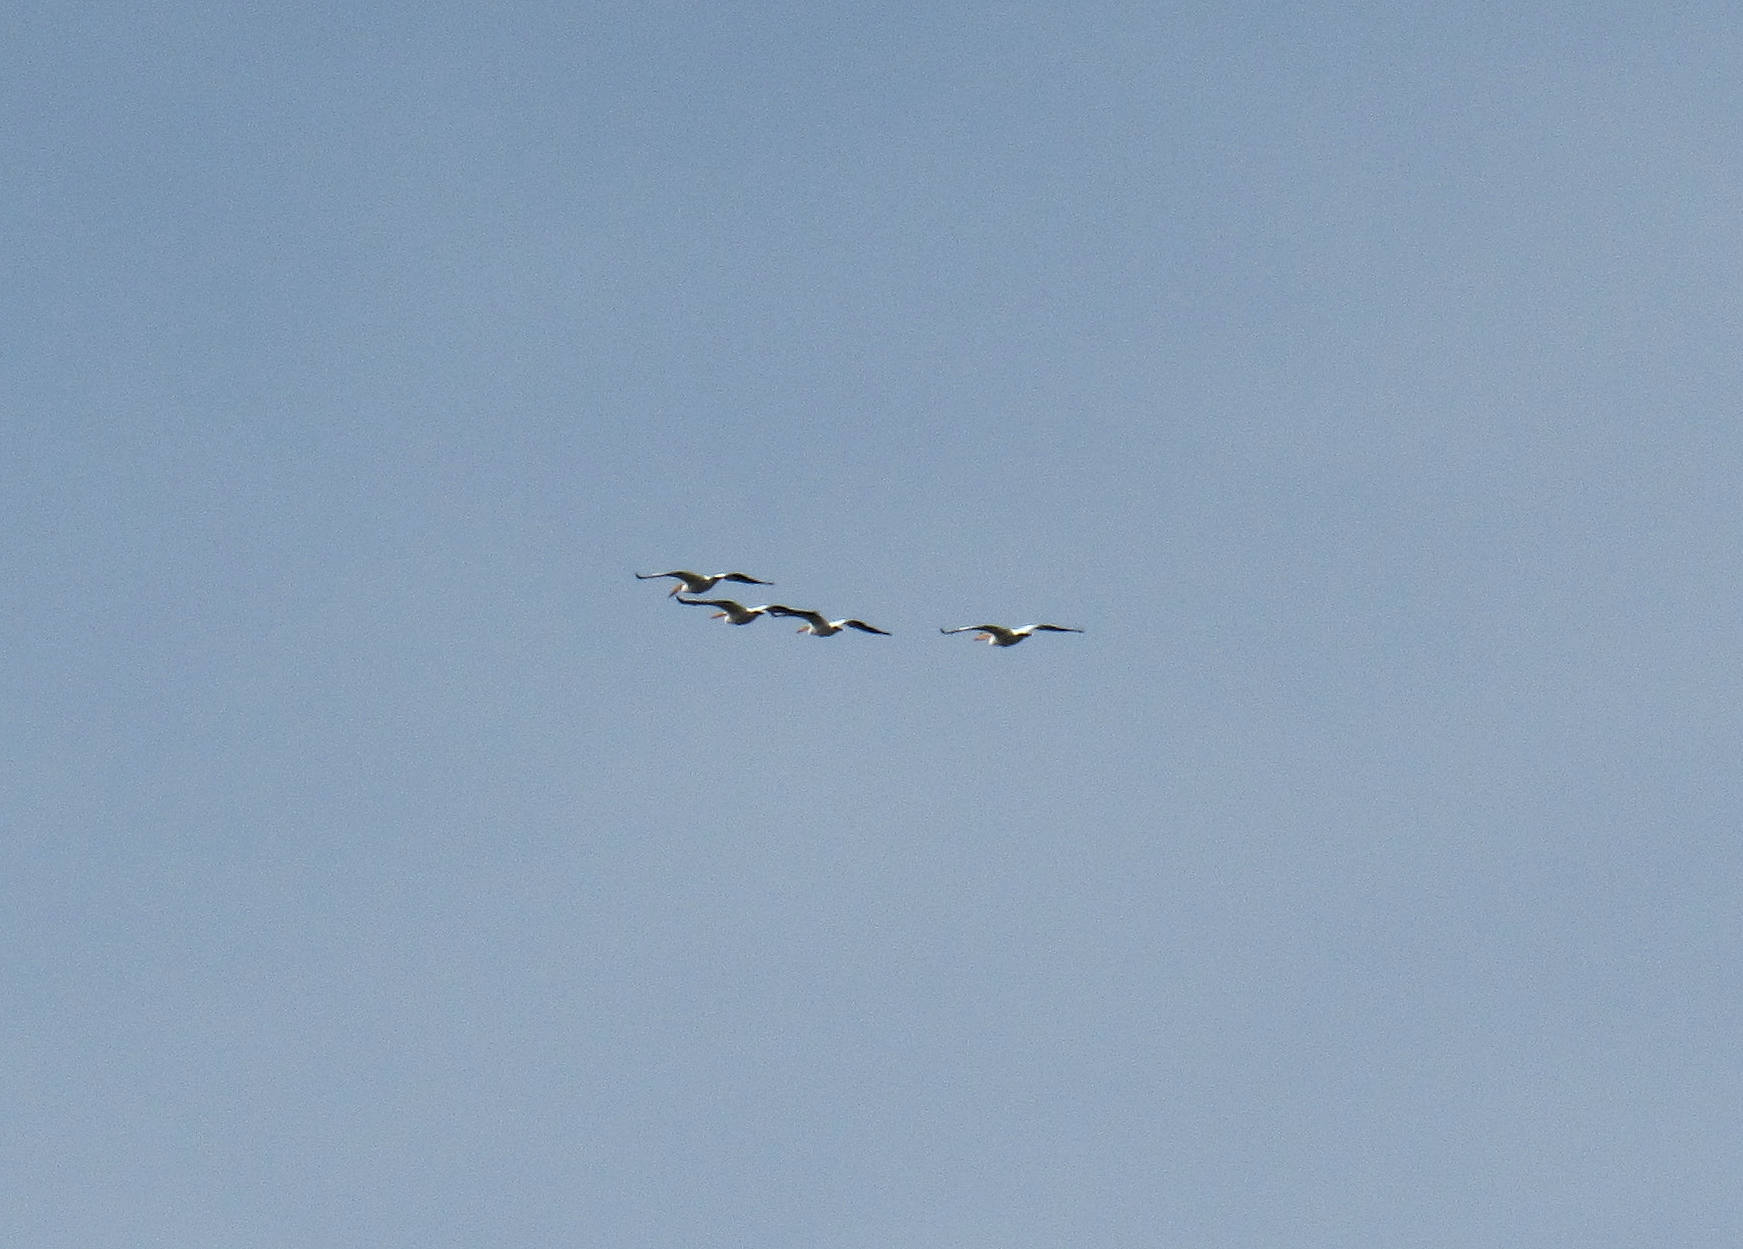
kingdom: Animalia
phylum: Chordata
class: Aves
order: Pelecaniformes
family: Pelecanidae
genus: Pelecanus
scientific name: Pelecanus erythrorhynchos
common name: American white pelican
